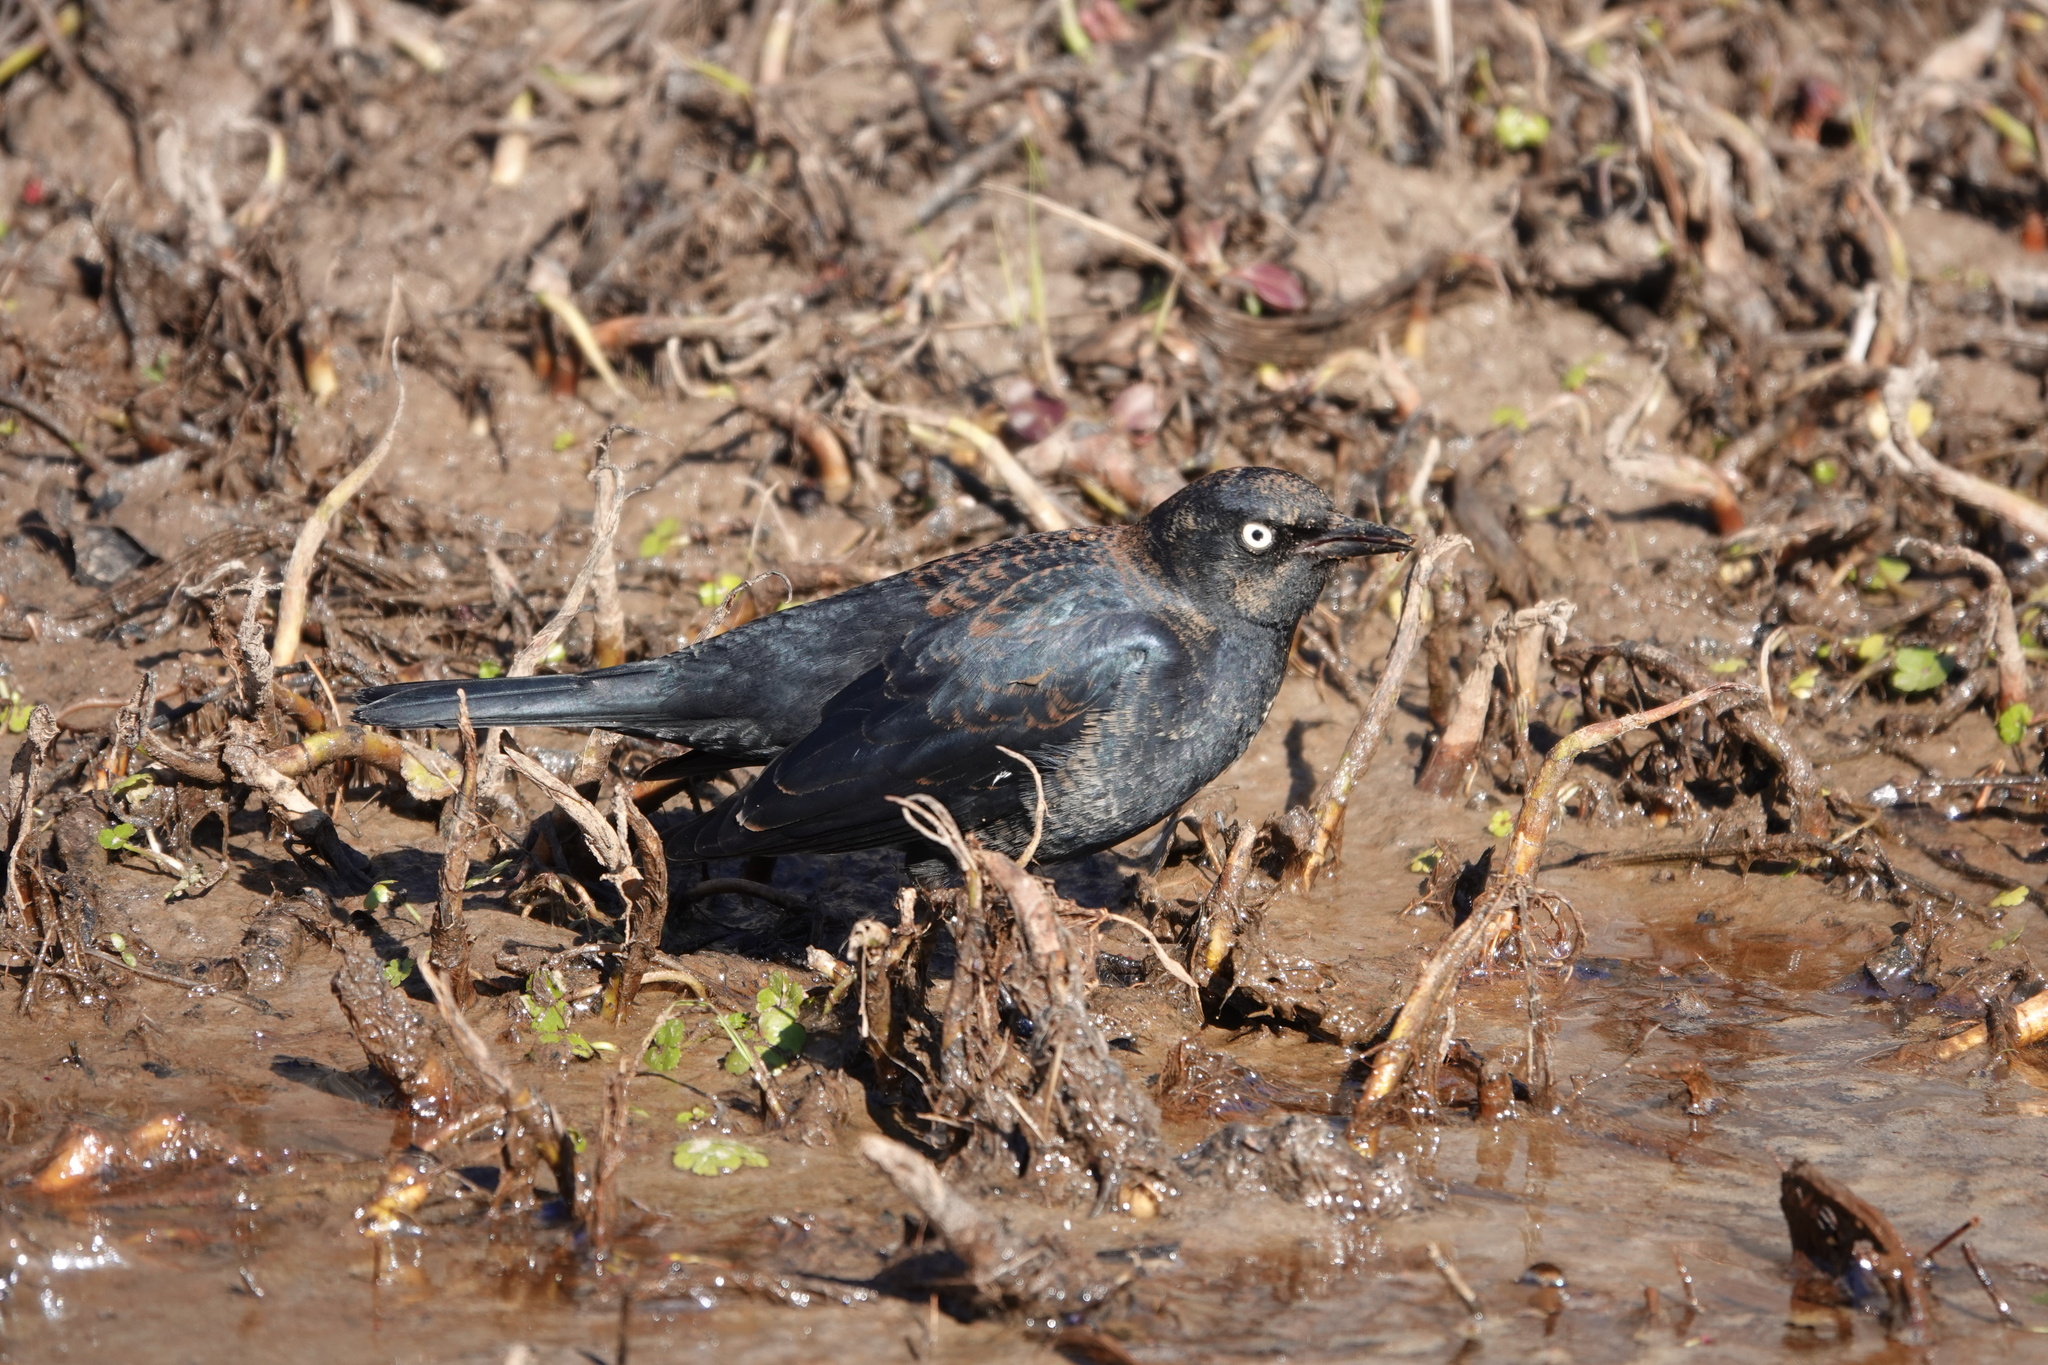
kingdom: Animalia
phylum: Chordata
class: Aves
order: Passeriformes
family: Icteridae
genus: Euphagus
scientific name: Euphagus carolinus
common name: Rusty blackbird
